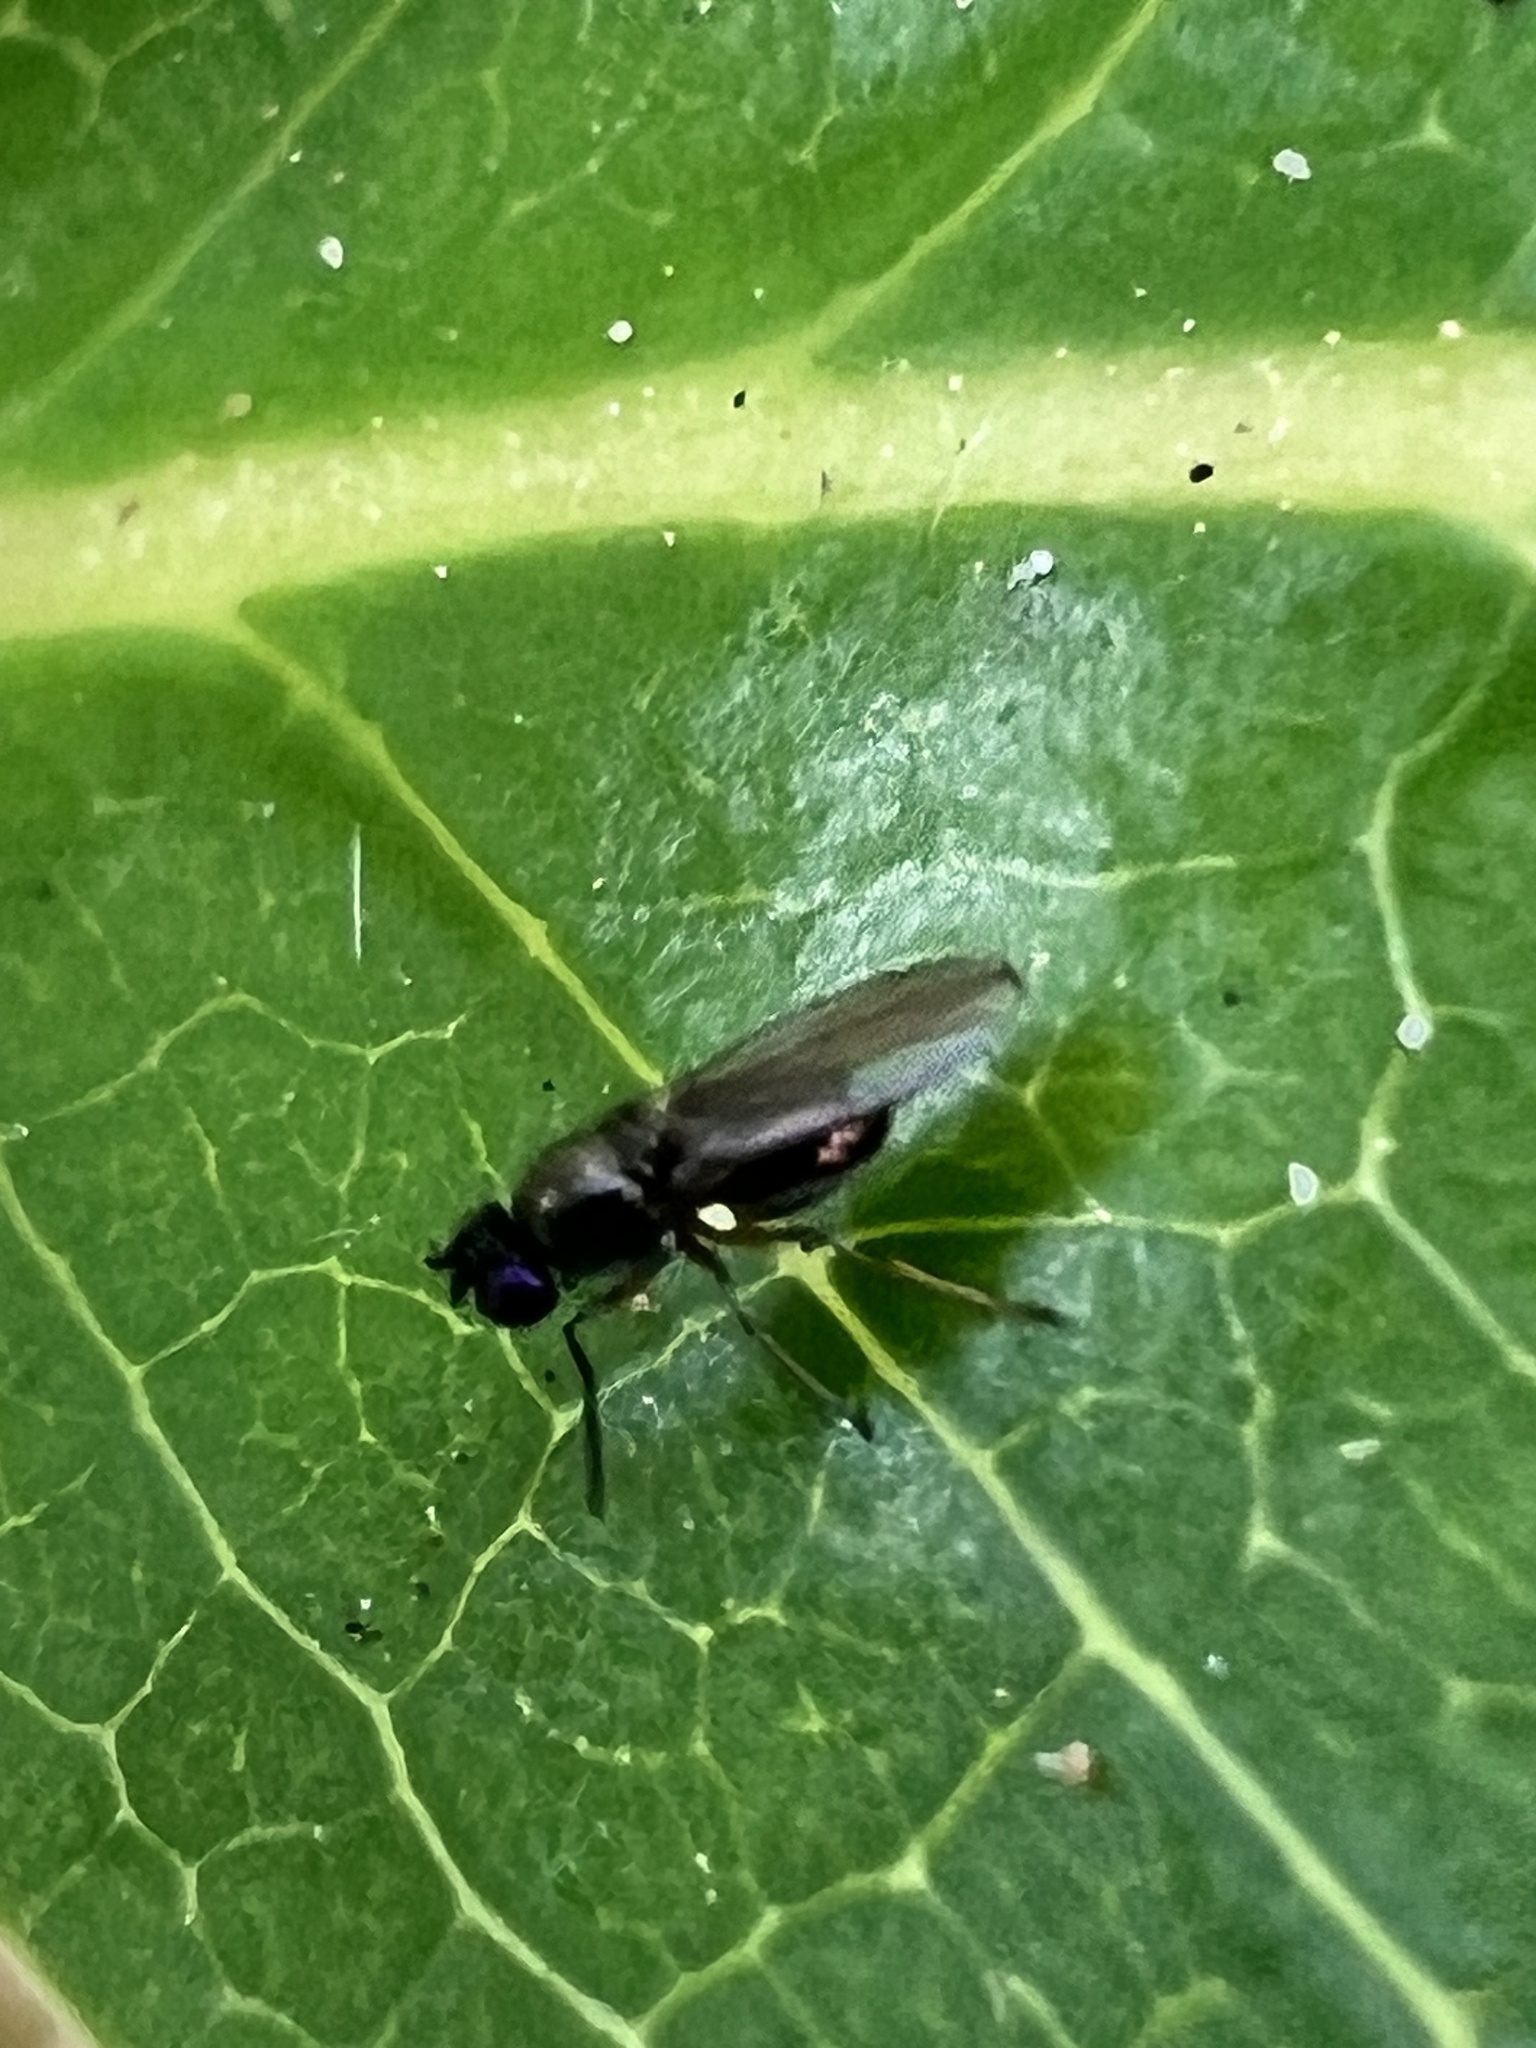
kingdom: Animalia
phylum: Arthropoda
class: Insecta
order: Diptera
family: Ephydridae
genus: Hydrellia
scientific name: Hydrellia tritici
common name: Shore fly
